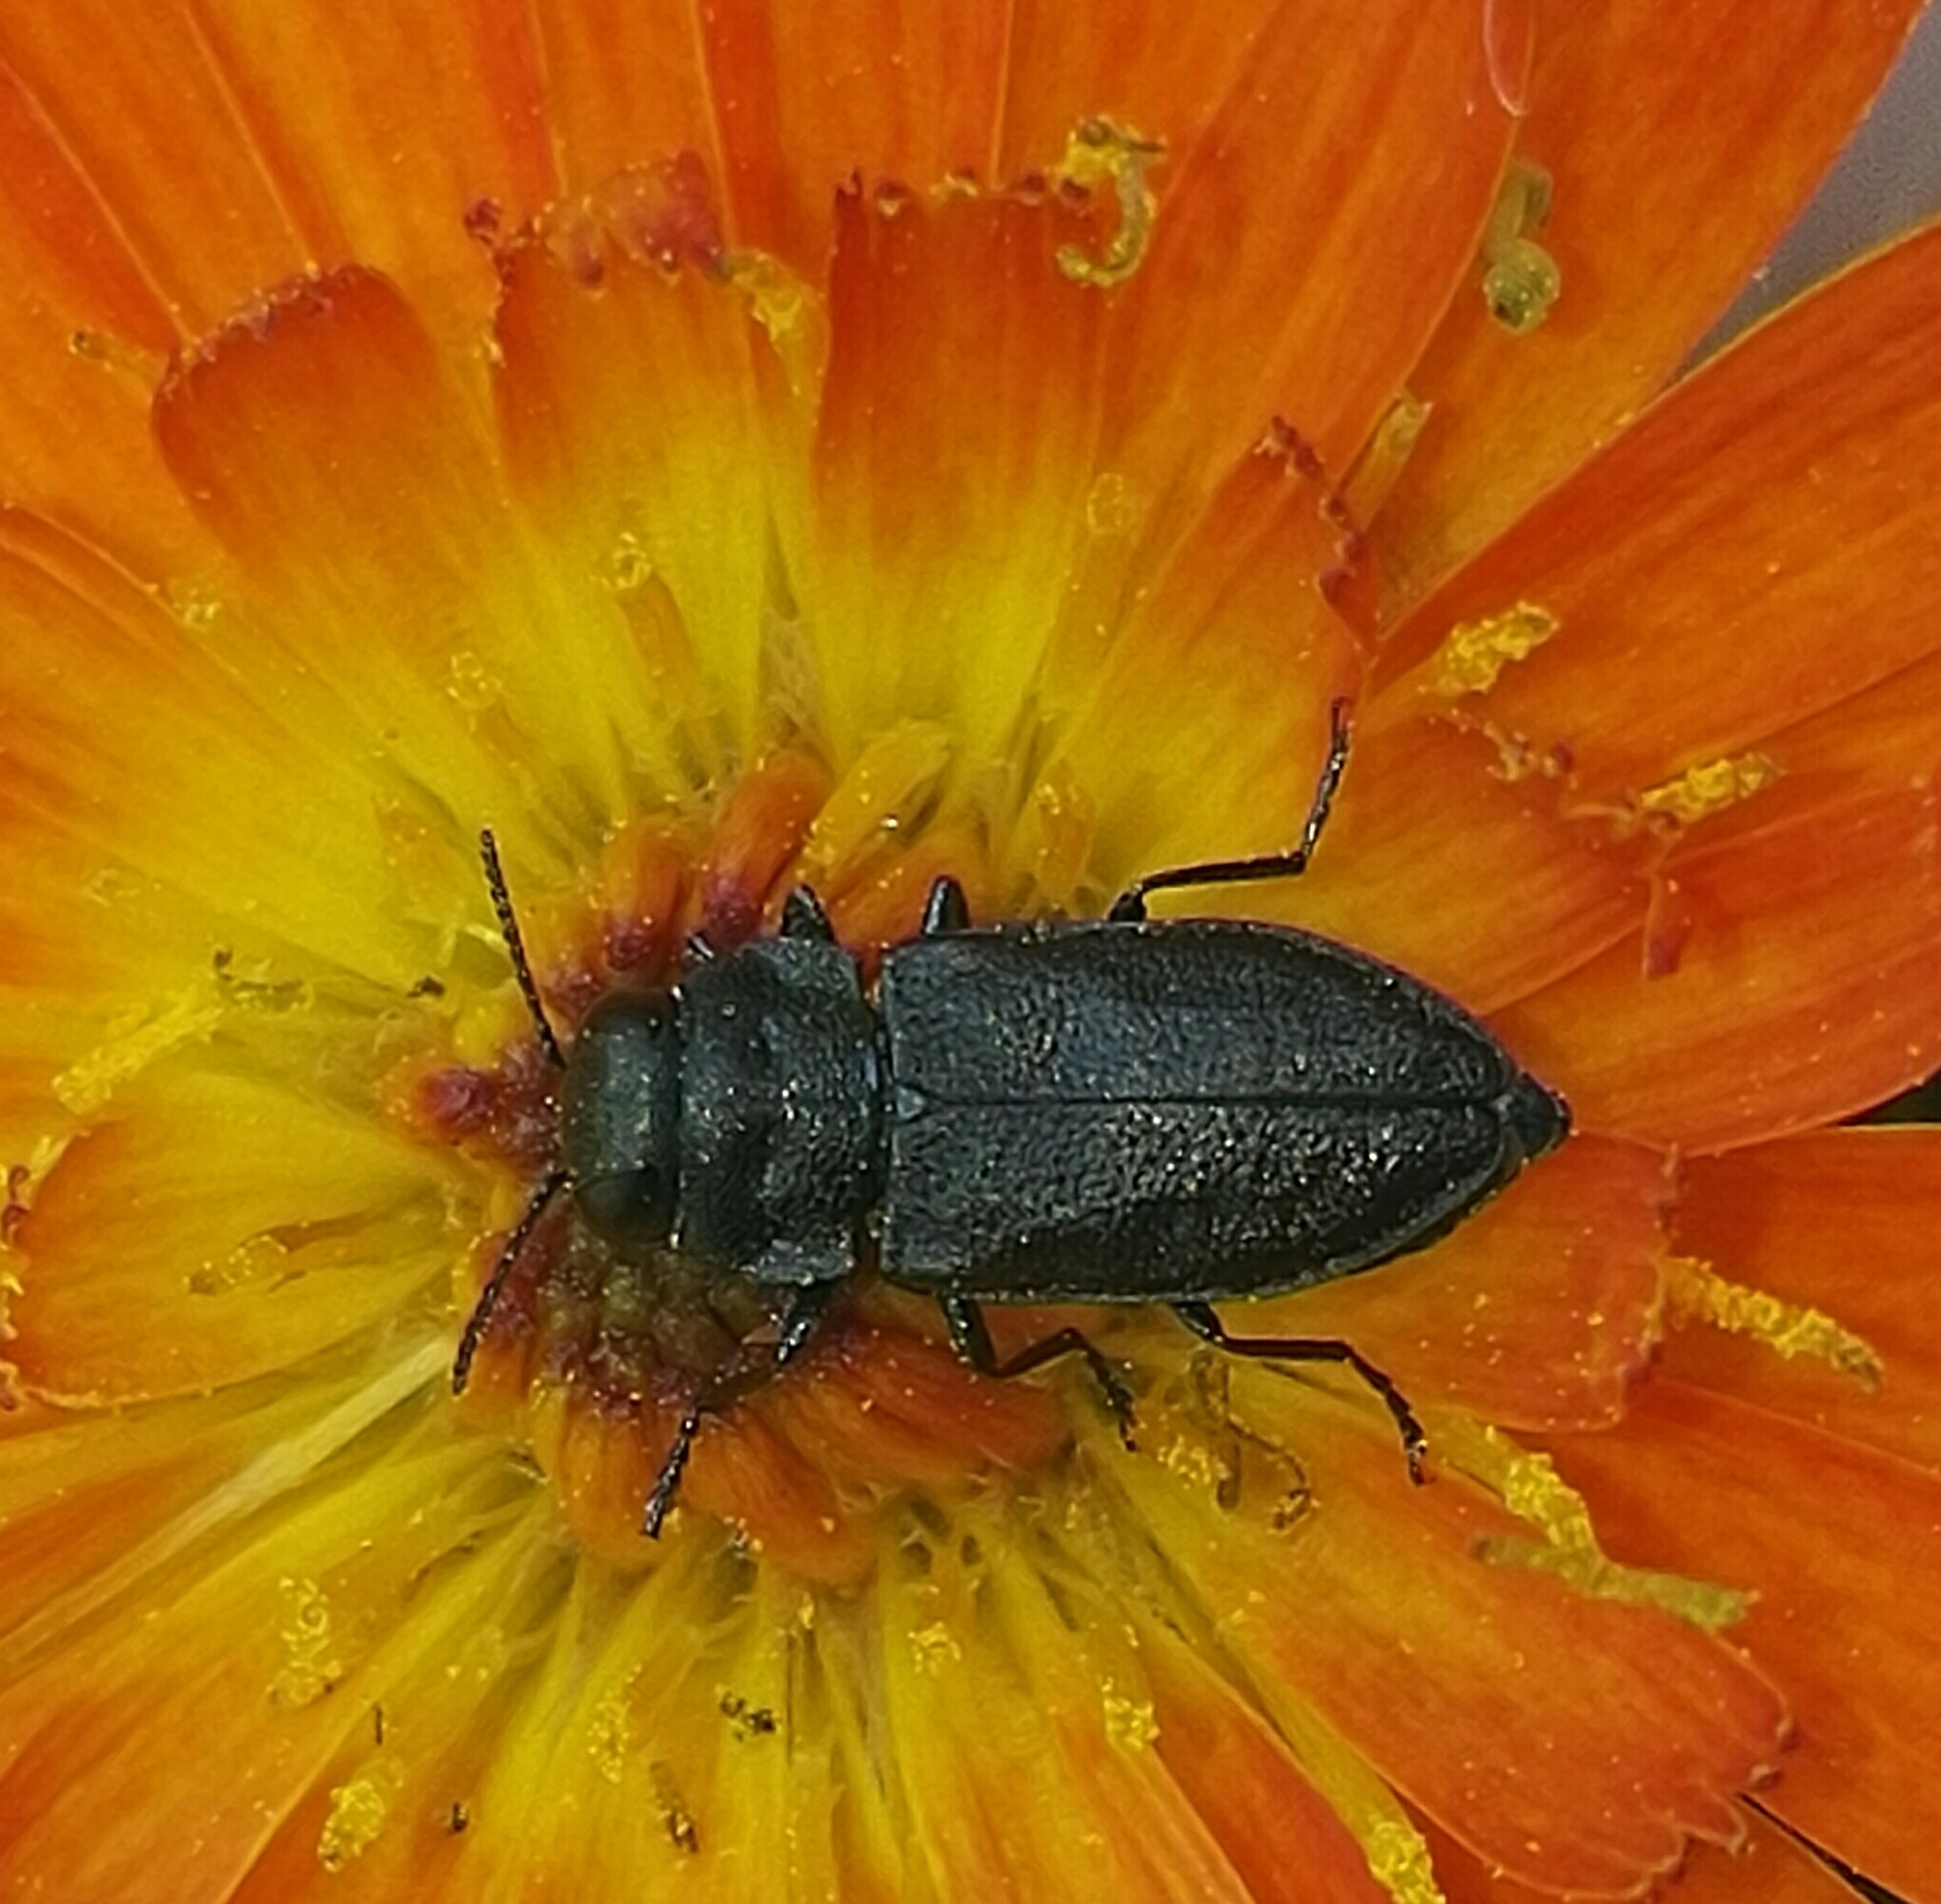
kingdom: Animalia
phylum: Arthropoda
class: Insecta
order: Coleoptera
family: Buprestidae
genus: Anthaxia
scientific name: Anthaxia quadripunctata
